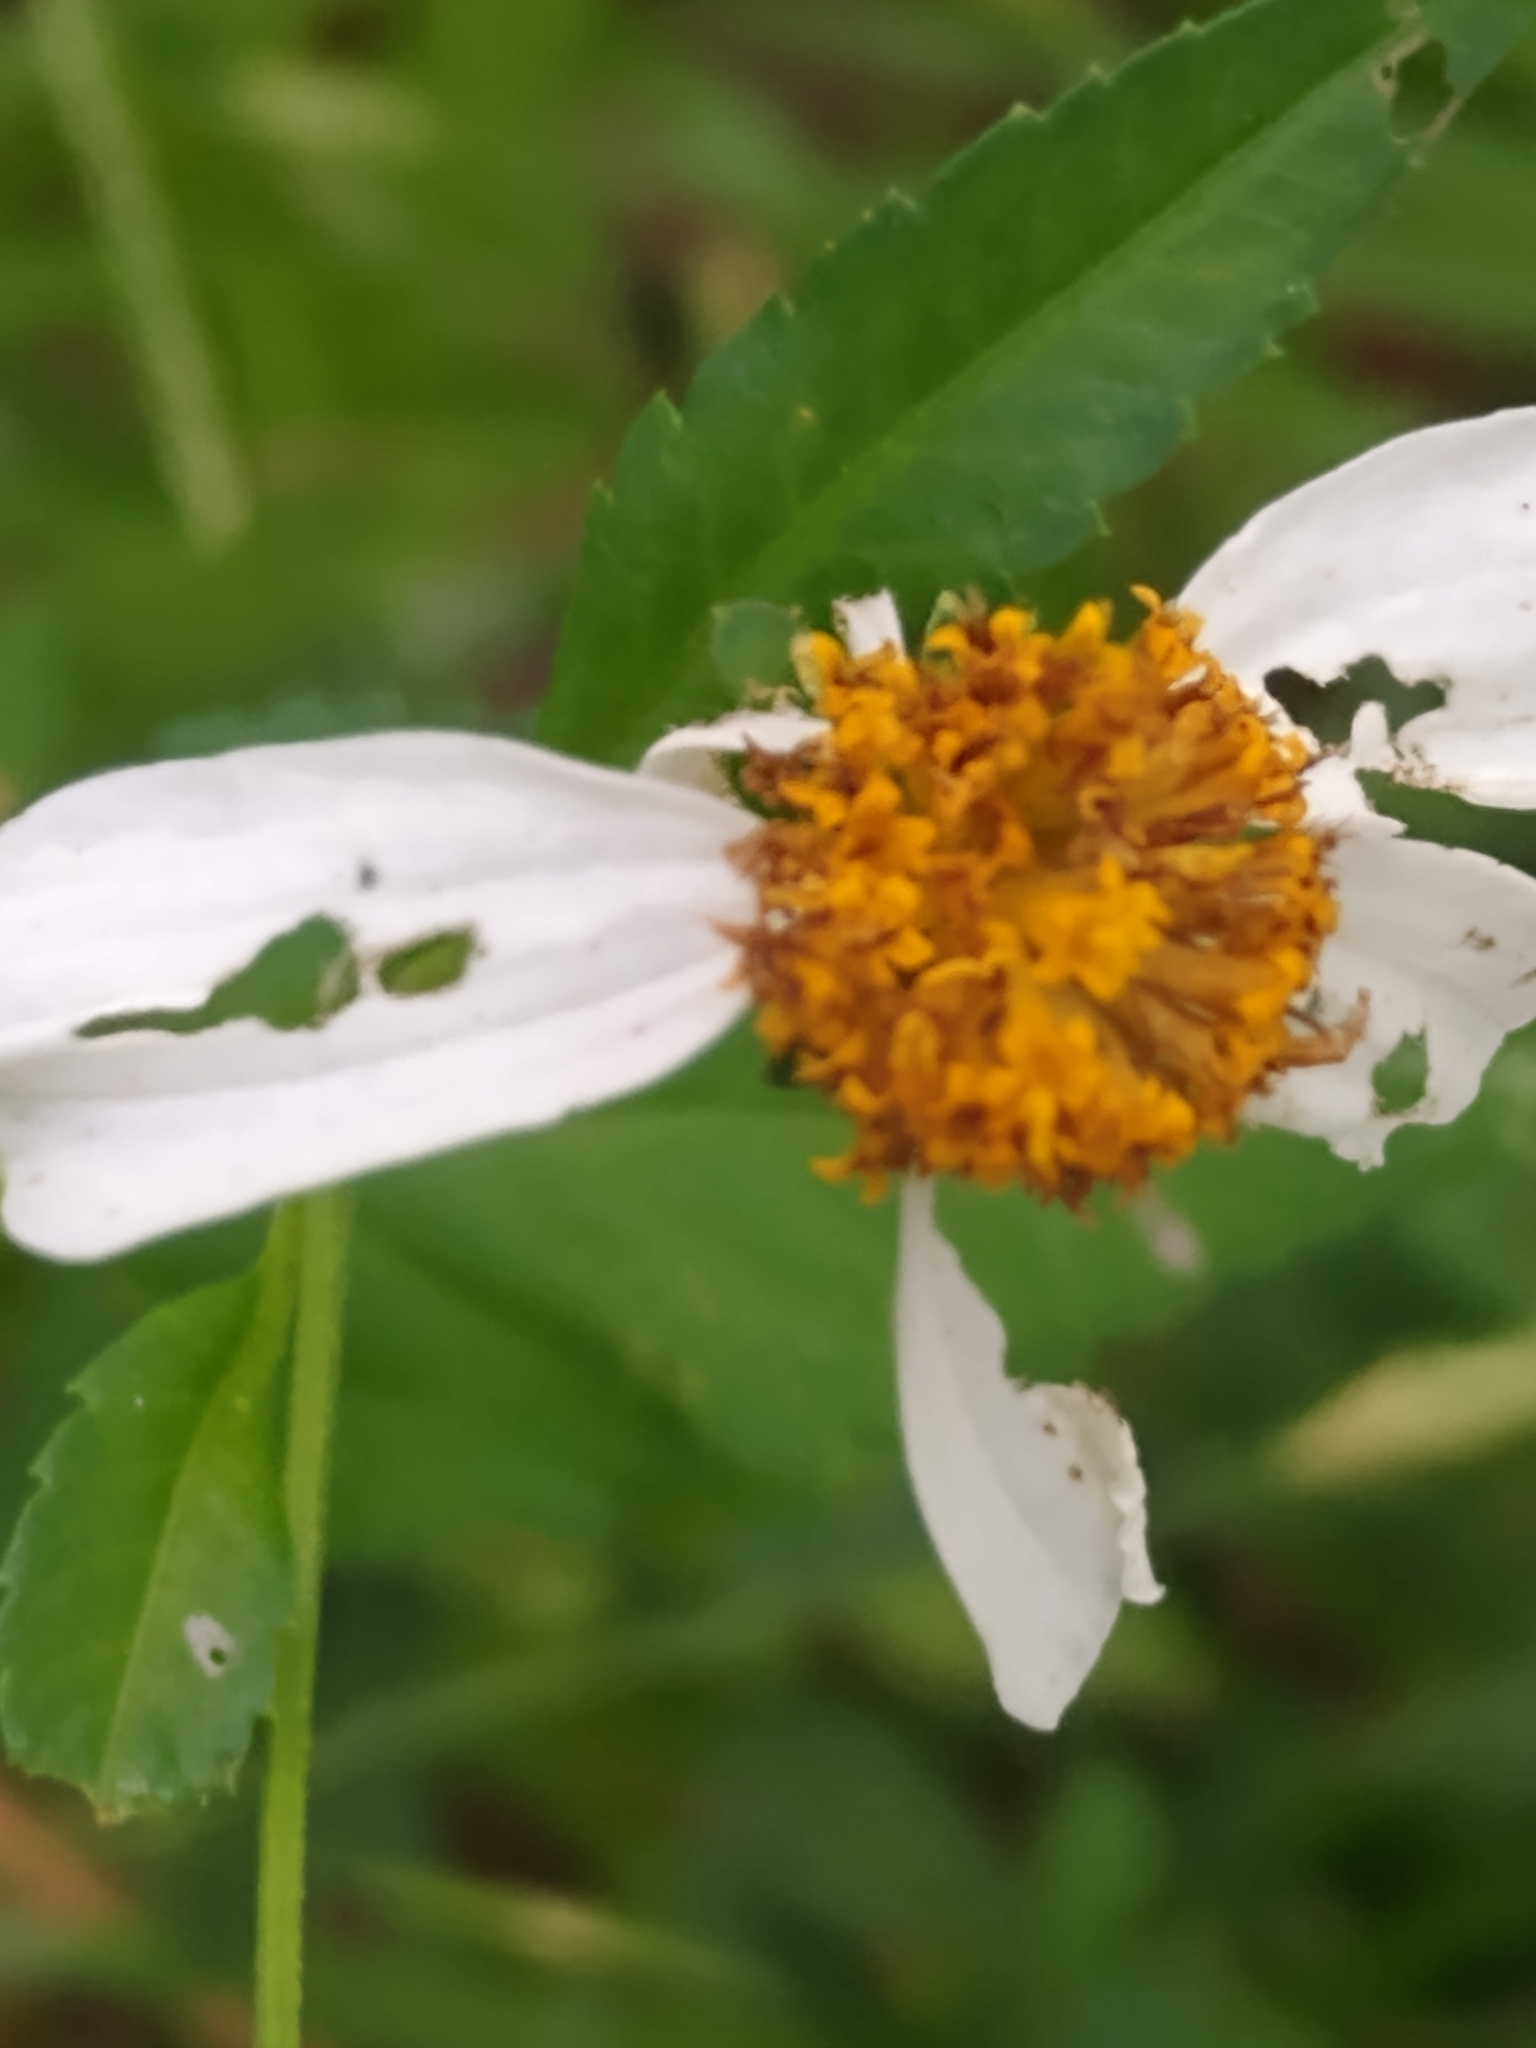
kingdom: Plantae
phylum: Tracheophyta
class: Magnoliopsida
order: Asterales
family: Asteraceae
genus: Bidens
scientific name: Bidens alba
